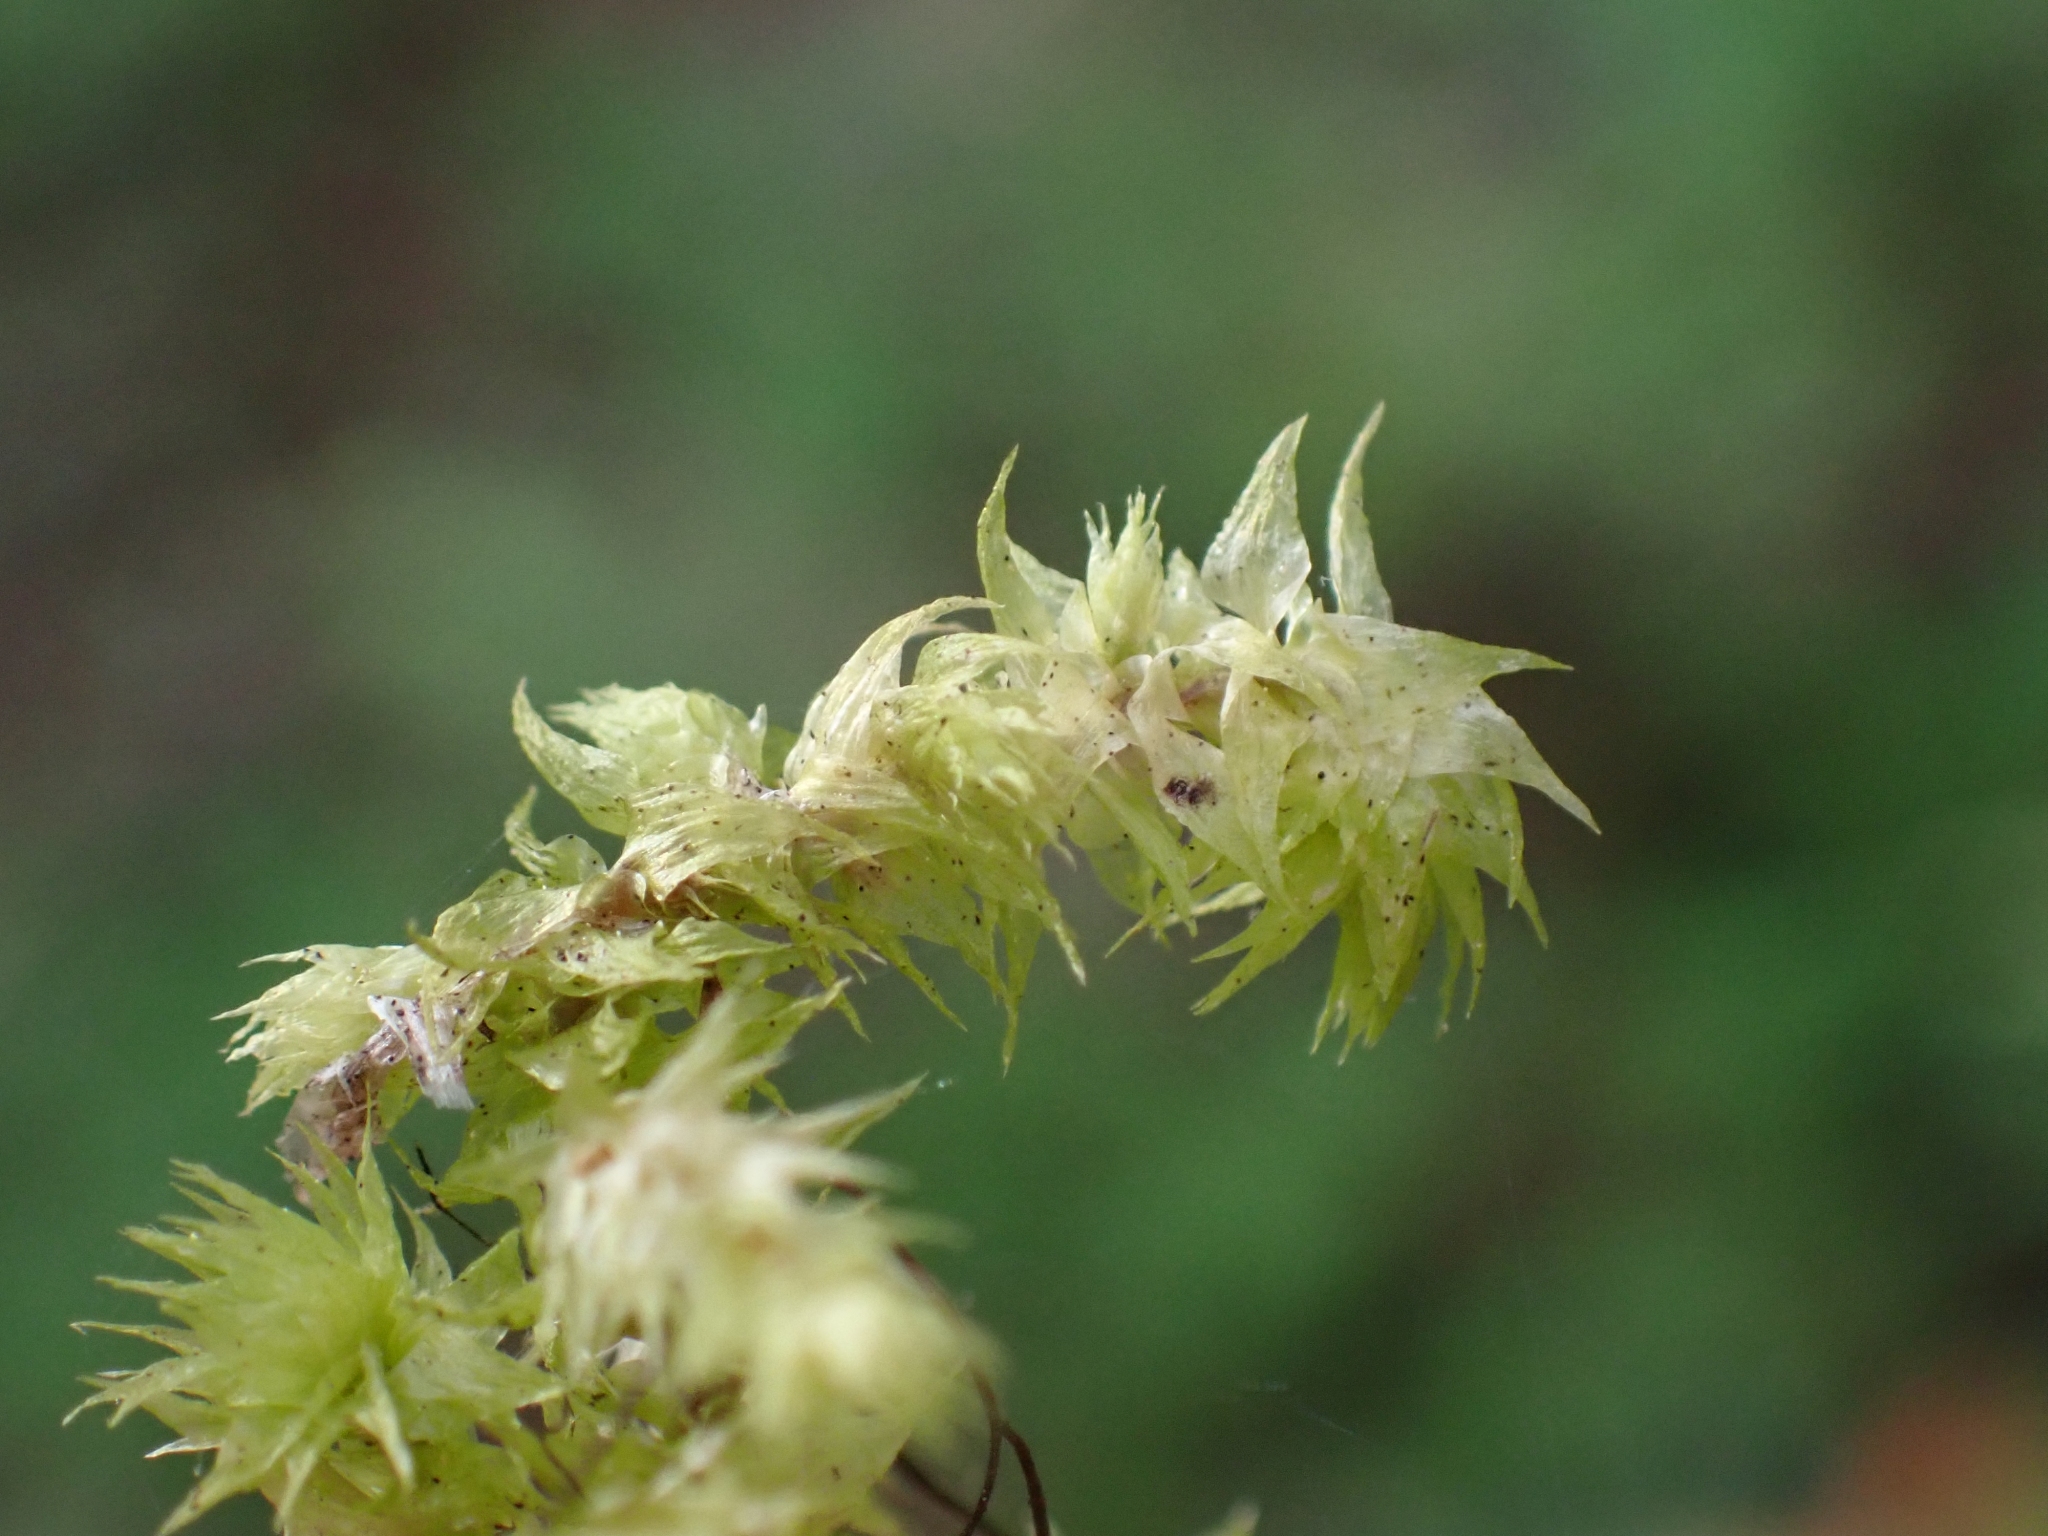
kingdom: Plantae
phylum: Bryophyta
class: Bryopsida
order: Hypnales
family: Hylocomiaceae
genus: Hylocomiadelphus
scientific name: Hylocomiadelphus triquetrus
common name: Rough goose neck moss
